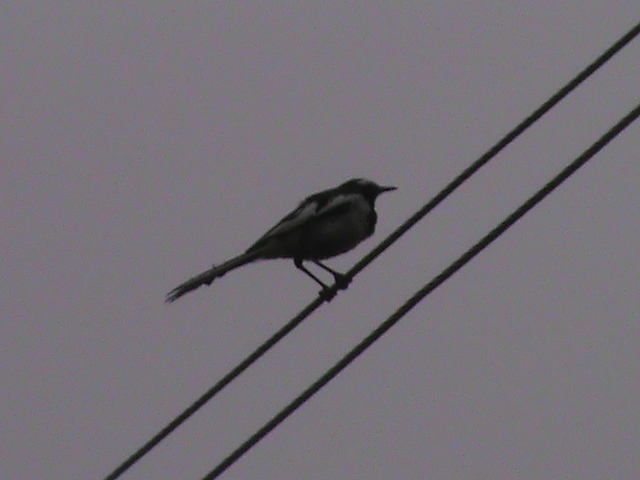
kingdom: Animalia
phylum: Chordata
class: Aves
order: Passeriformes
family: Motacillidae
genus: Motacilla
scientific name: Motacilla maderaspatensis
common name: White-browed wagtail
